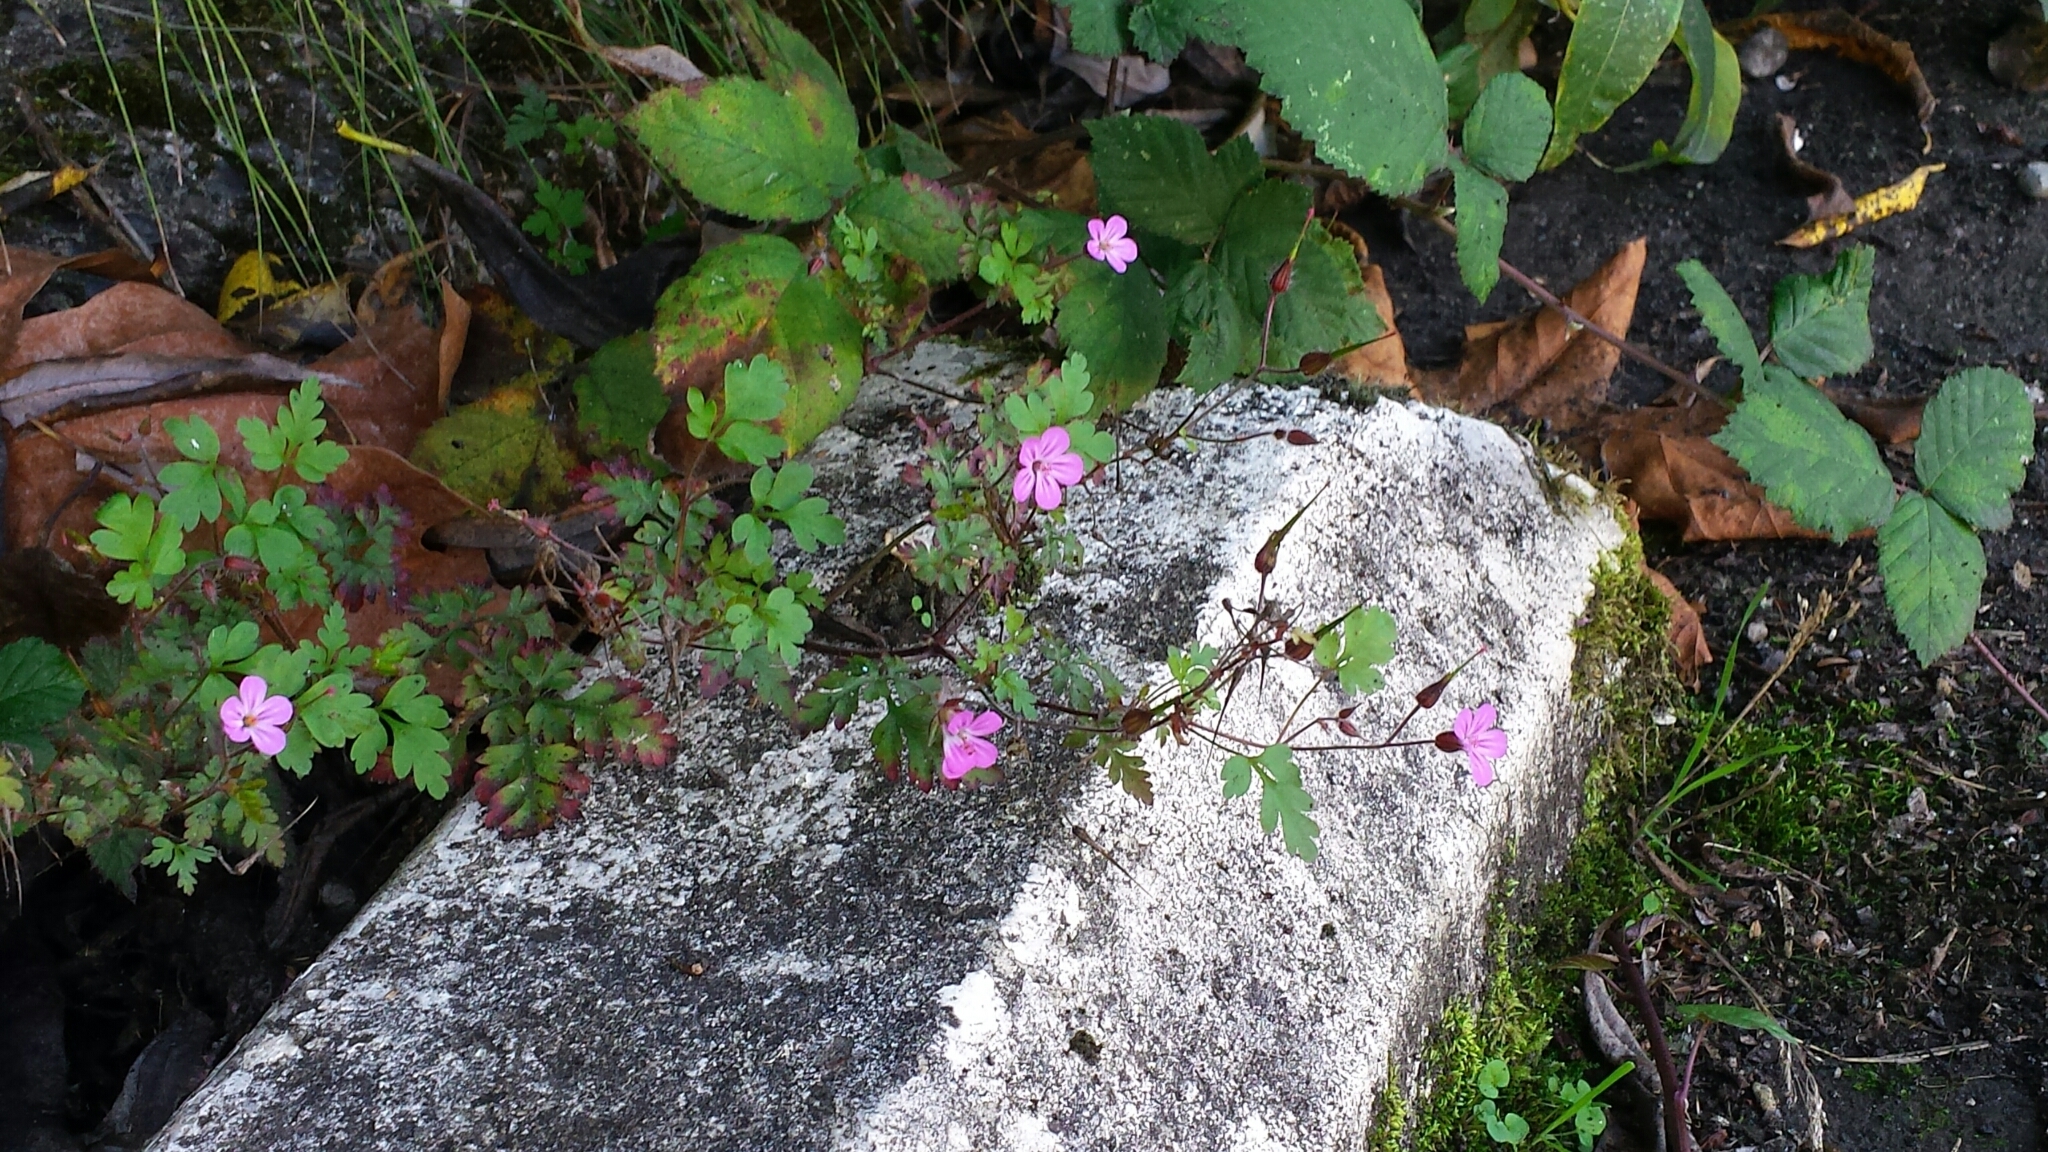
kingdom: Plantae
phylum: Tracheophyta
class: Magnoliopsida
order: Geraniales
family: Geraniaceae
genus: Geranium
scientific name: Geranium robertianum
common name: Herb-robert
